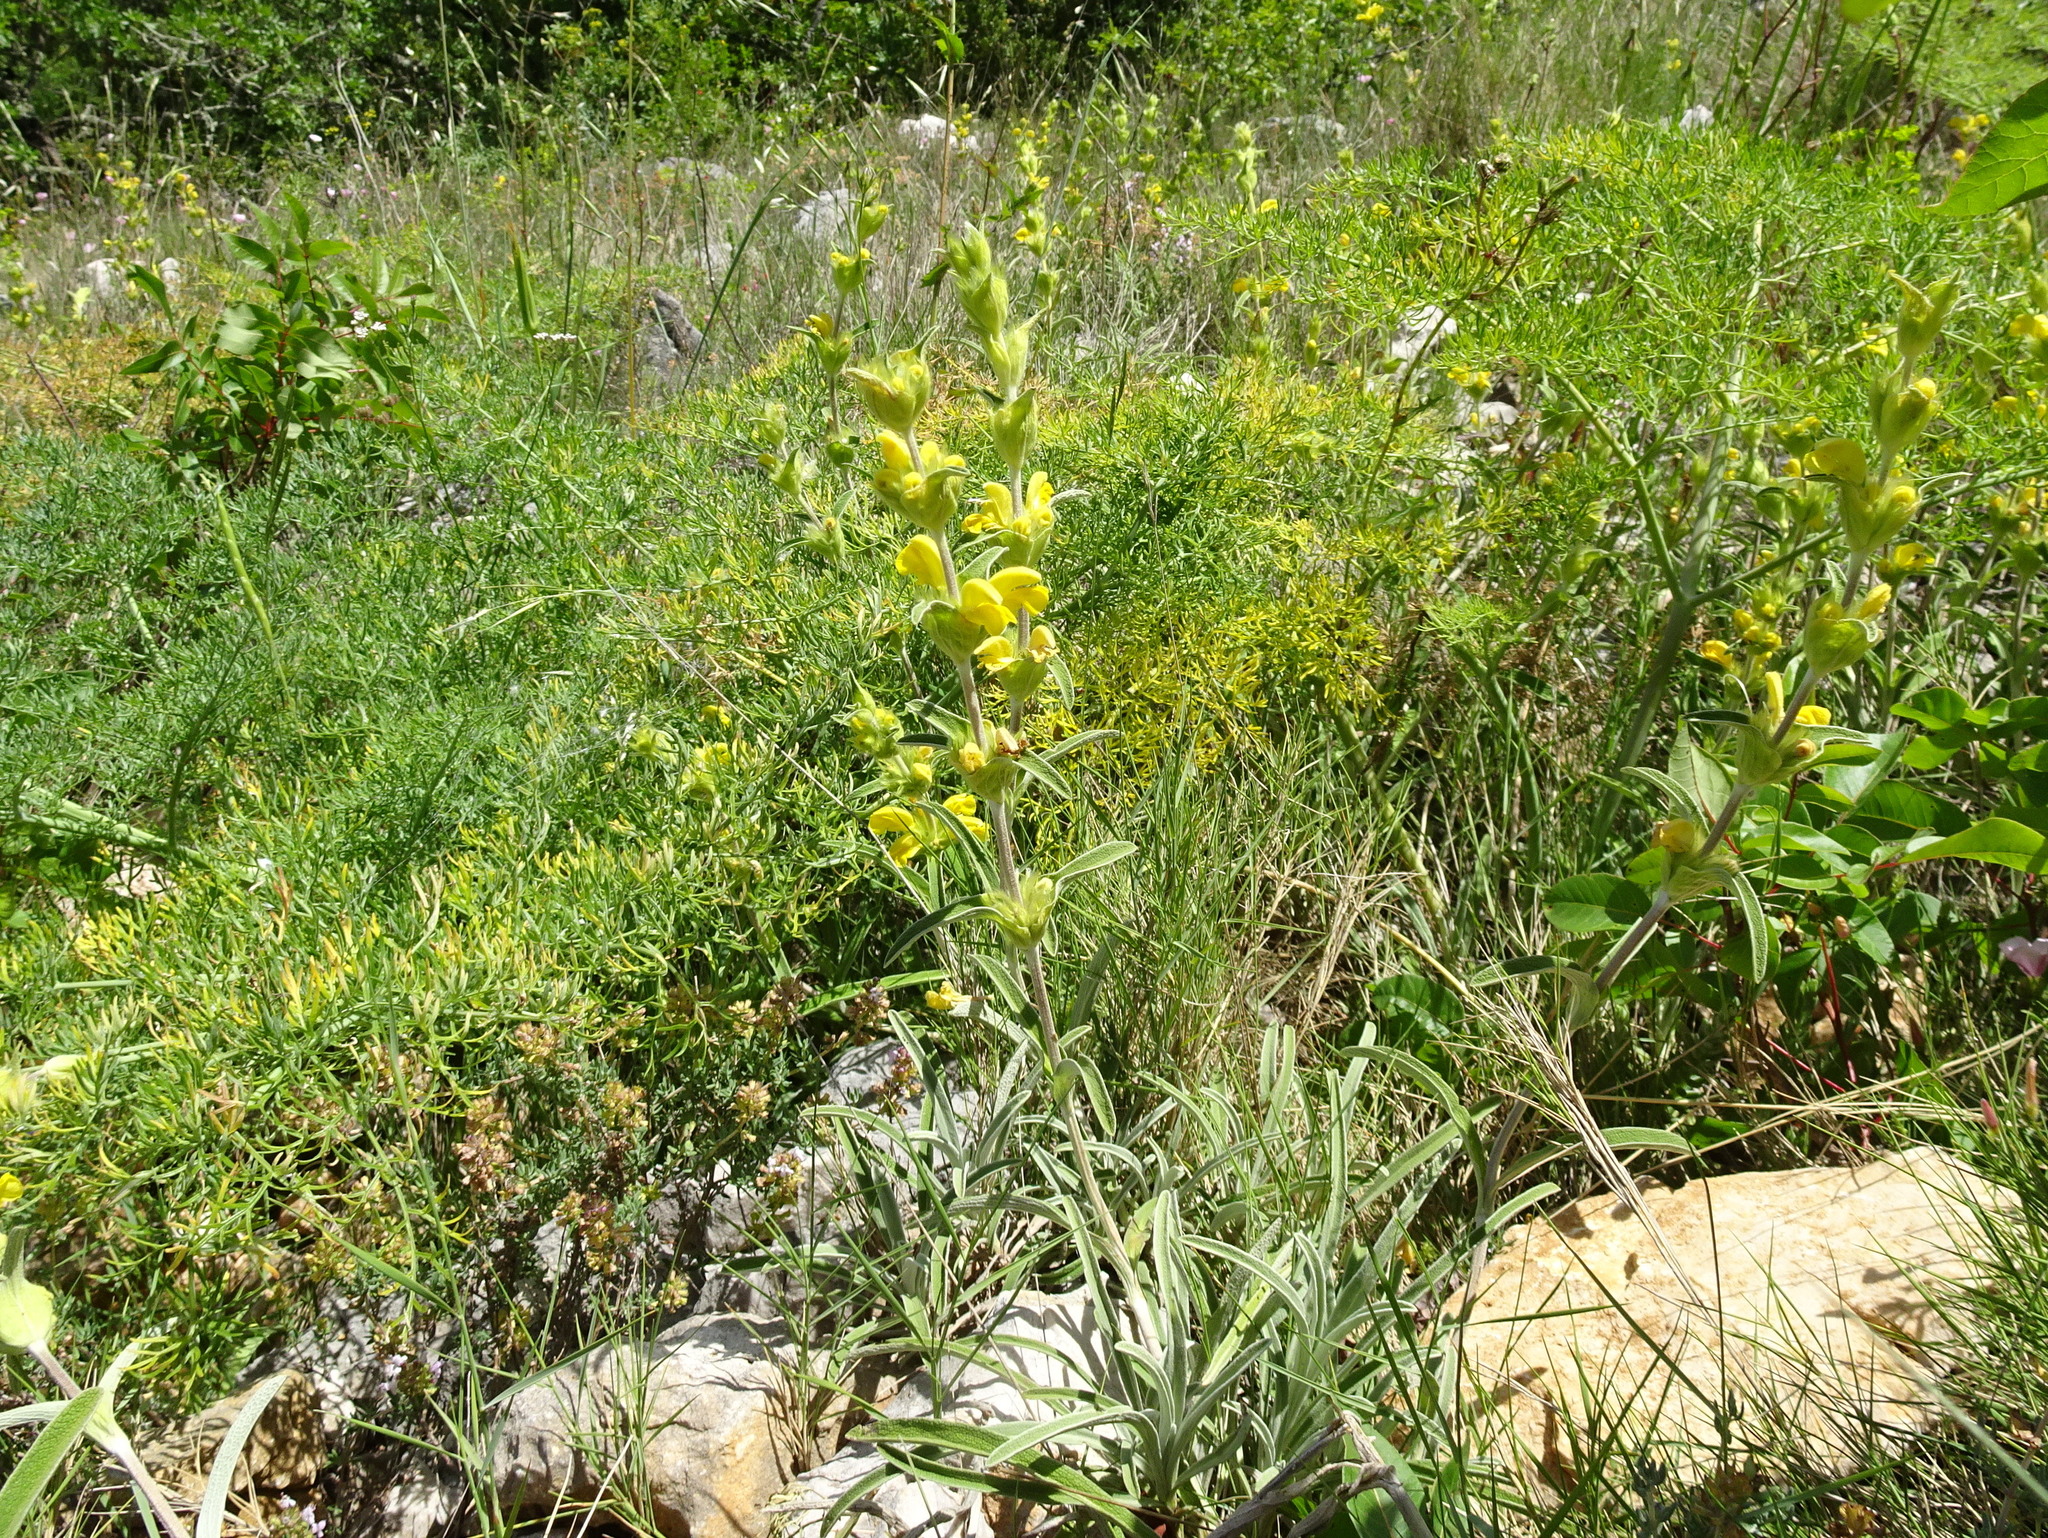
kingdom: Plantae
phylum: Tracheophyta
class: Magnoliopsida
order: Lamiales
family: Lamiaceae
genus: Phlomis
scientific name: Phlomis lychnitis
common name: Lampwickplant
